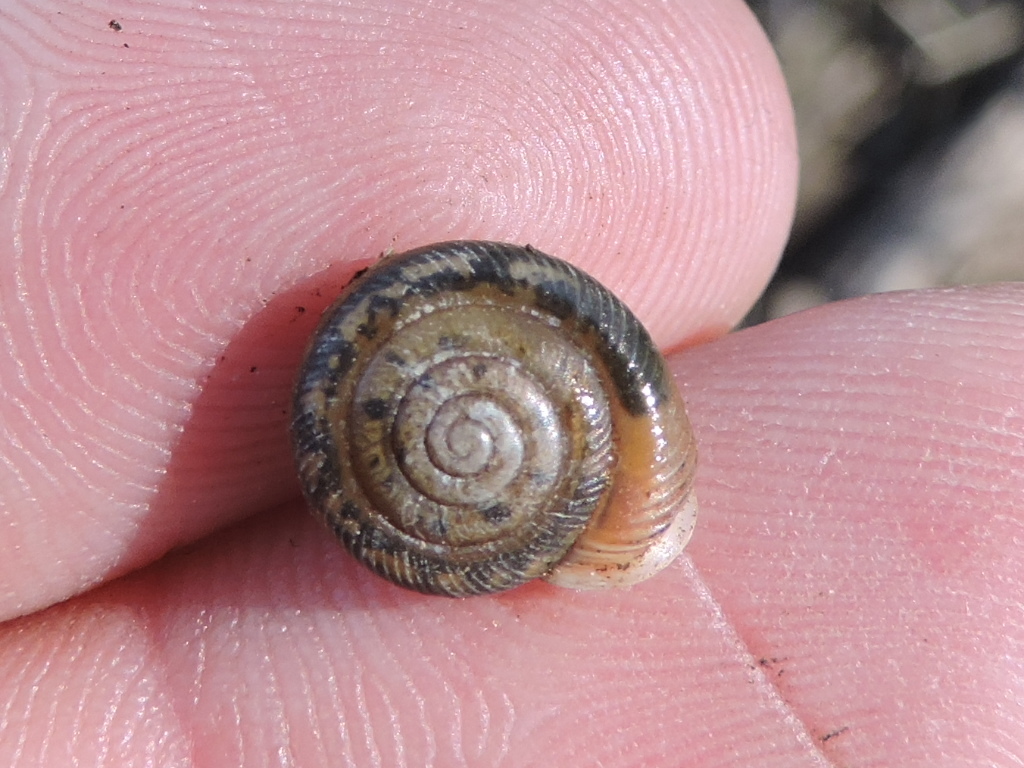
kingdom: Animalia
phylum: Mollusca
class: Gastropoda
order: Stylommatophora
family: Polygyridae
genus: Linisa
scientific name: Linisa texasiana
